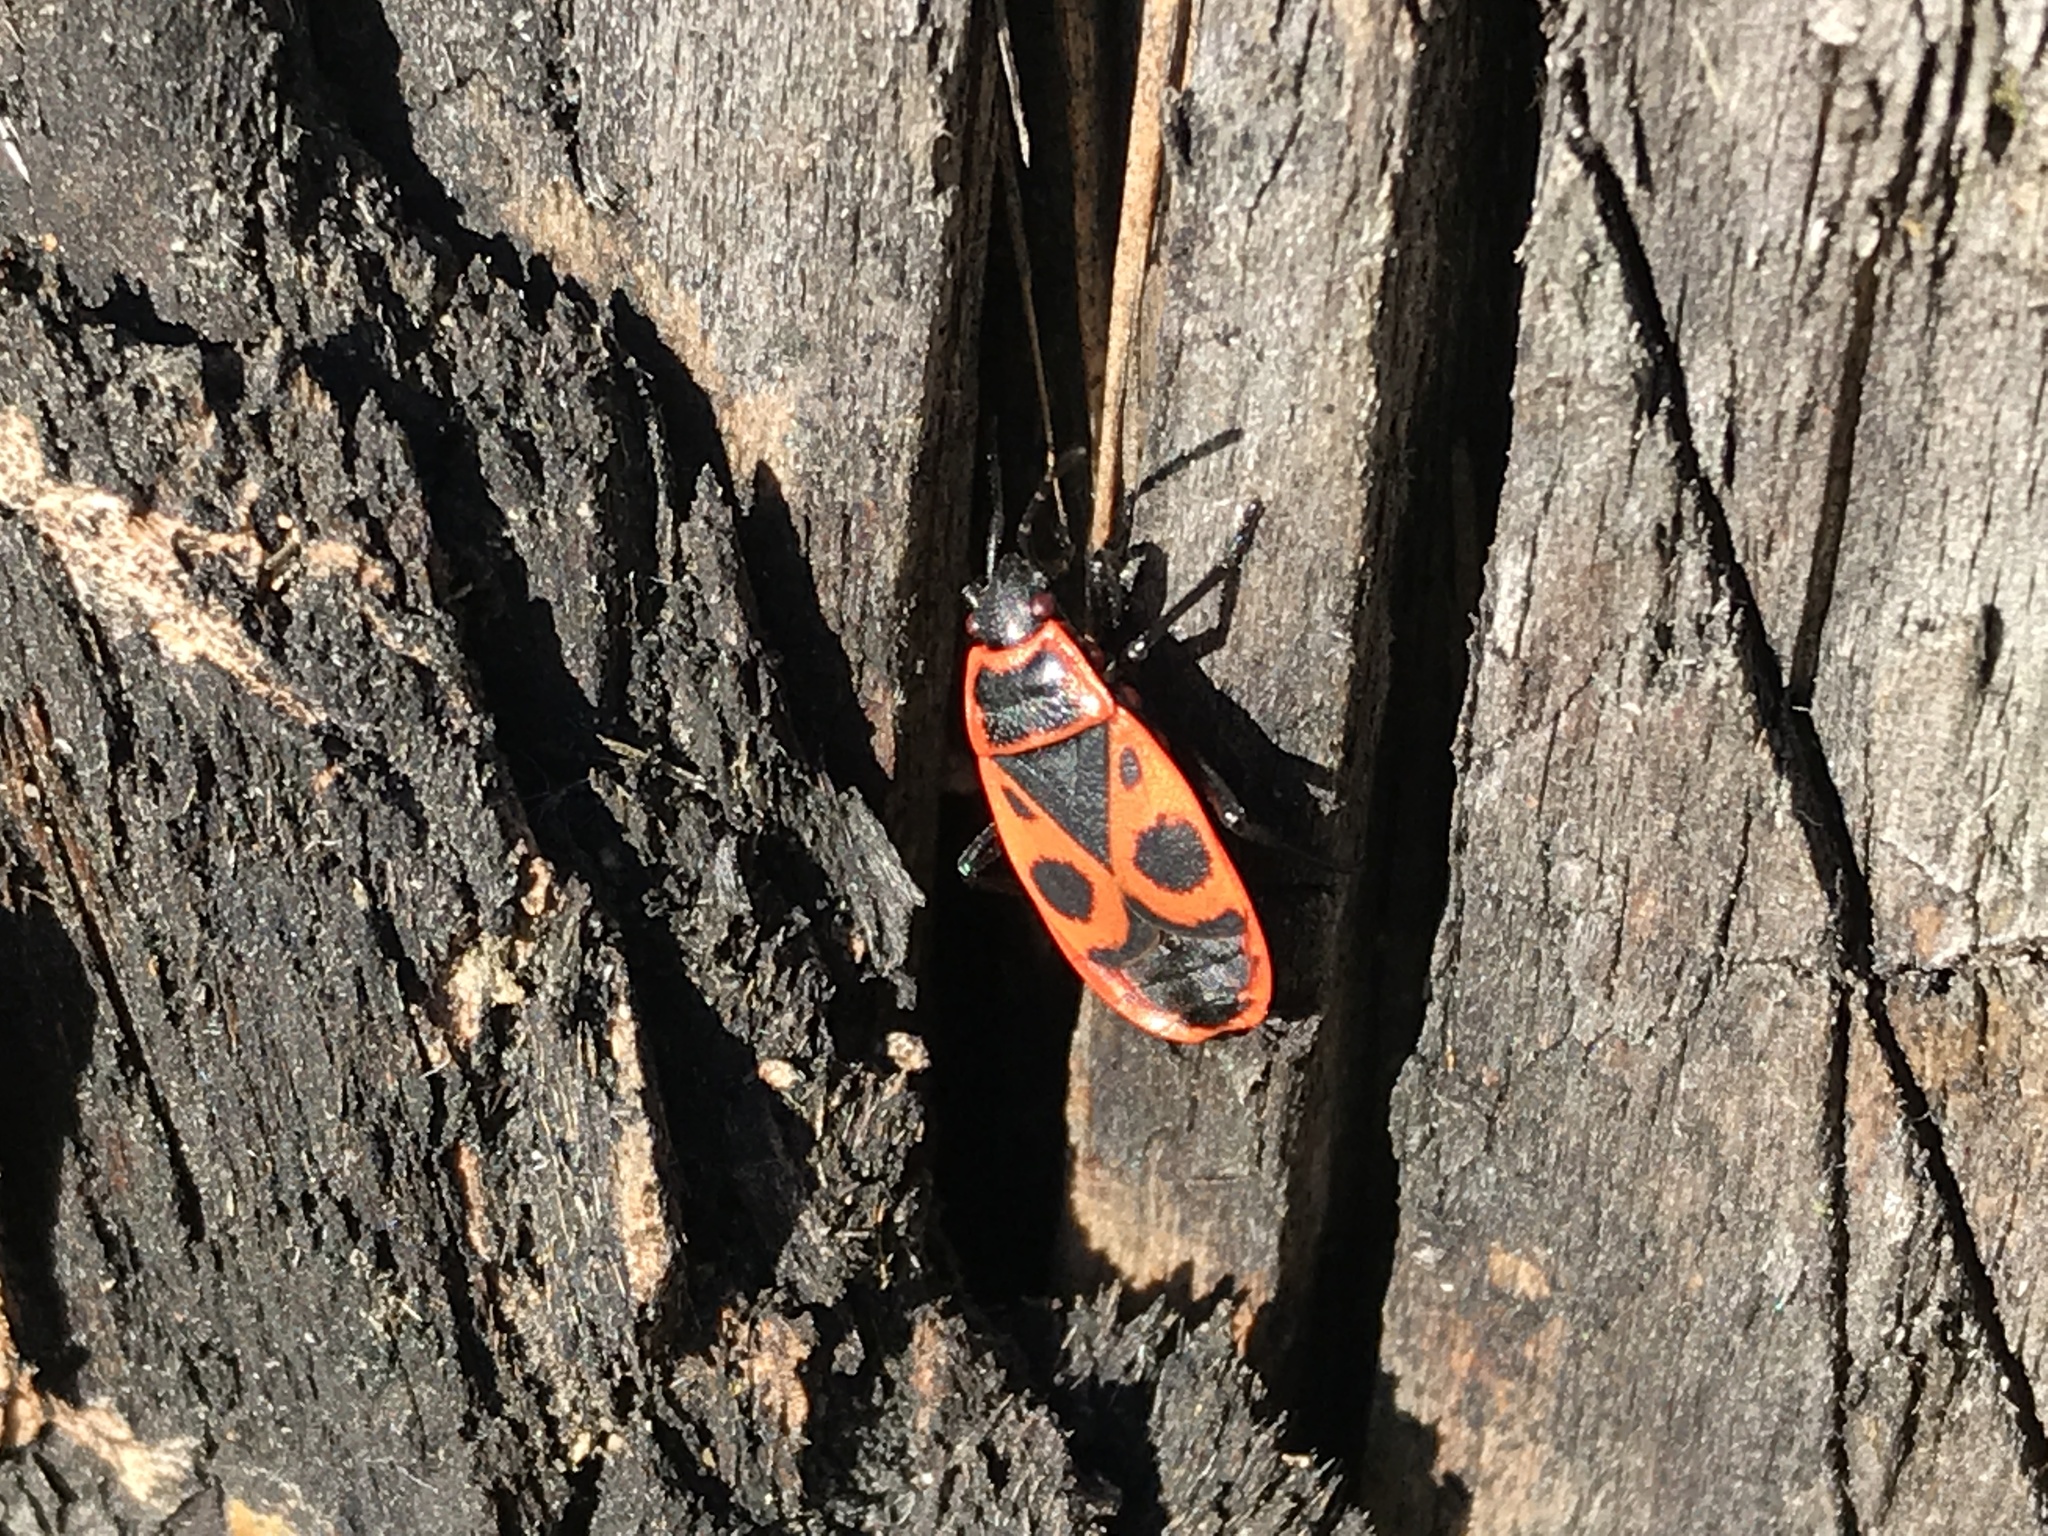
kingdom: Animalia
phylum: Arthropoda
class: Insecta
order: Hemiptera
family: Pyrrhocoridae
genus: Pyrrhocoris
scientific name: Pyrrhocoris apterus
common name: Firebug
